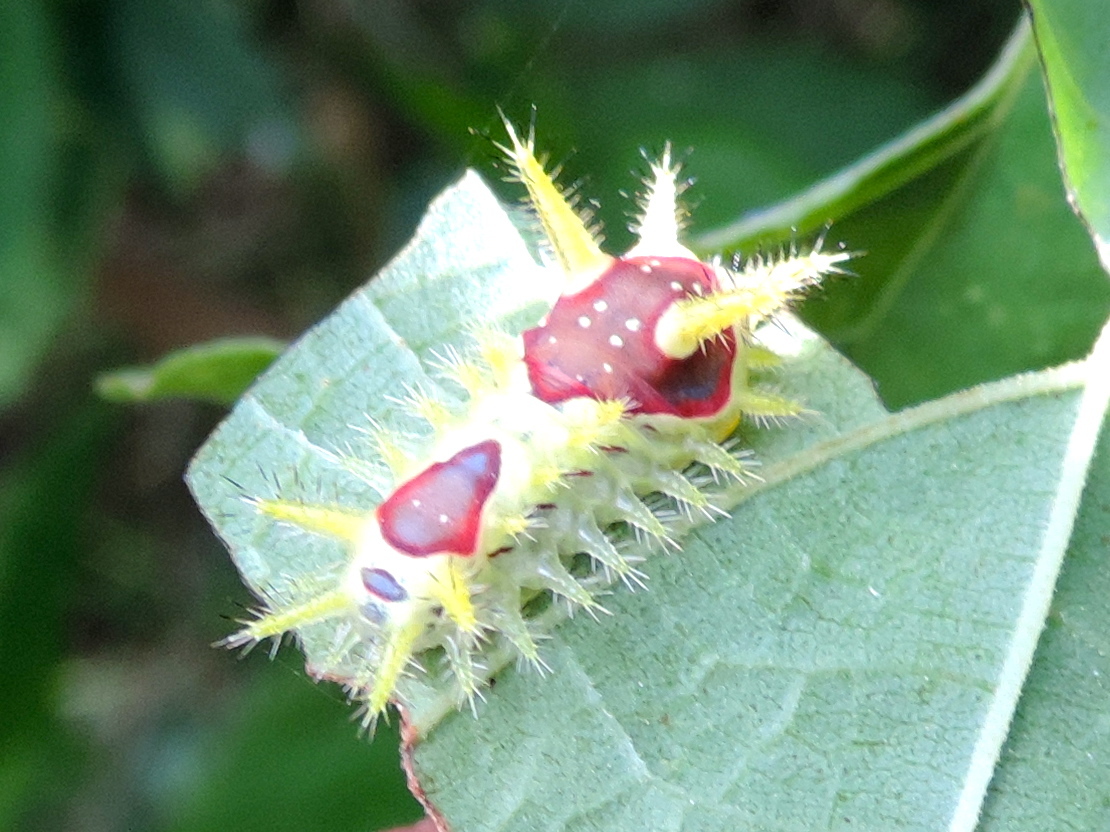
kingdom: Animalia
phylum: Arthropoda
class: Insecta
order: Lepidoptera
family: Limacodidae
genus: Vipsania
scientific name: Vipsania rosabella
